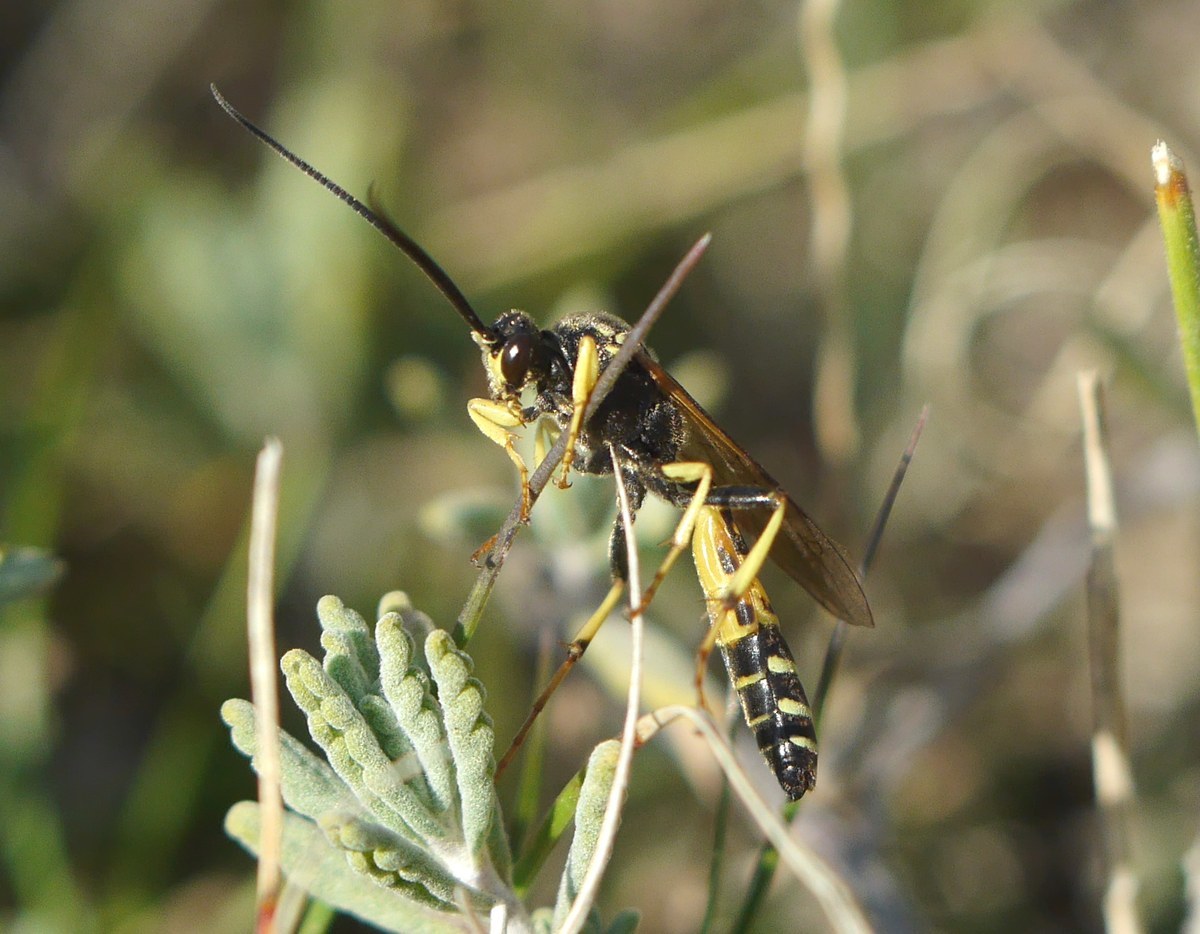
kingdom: Animalia
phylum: Arthropoda
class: Insecta
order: Hymenoptera
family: Ichneumonidae
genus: Spilichneumon
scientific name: Spilichneumon occisorius
